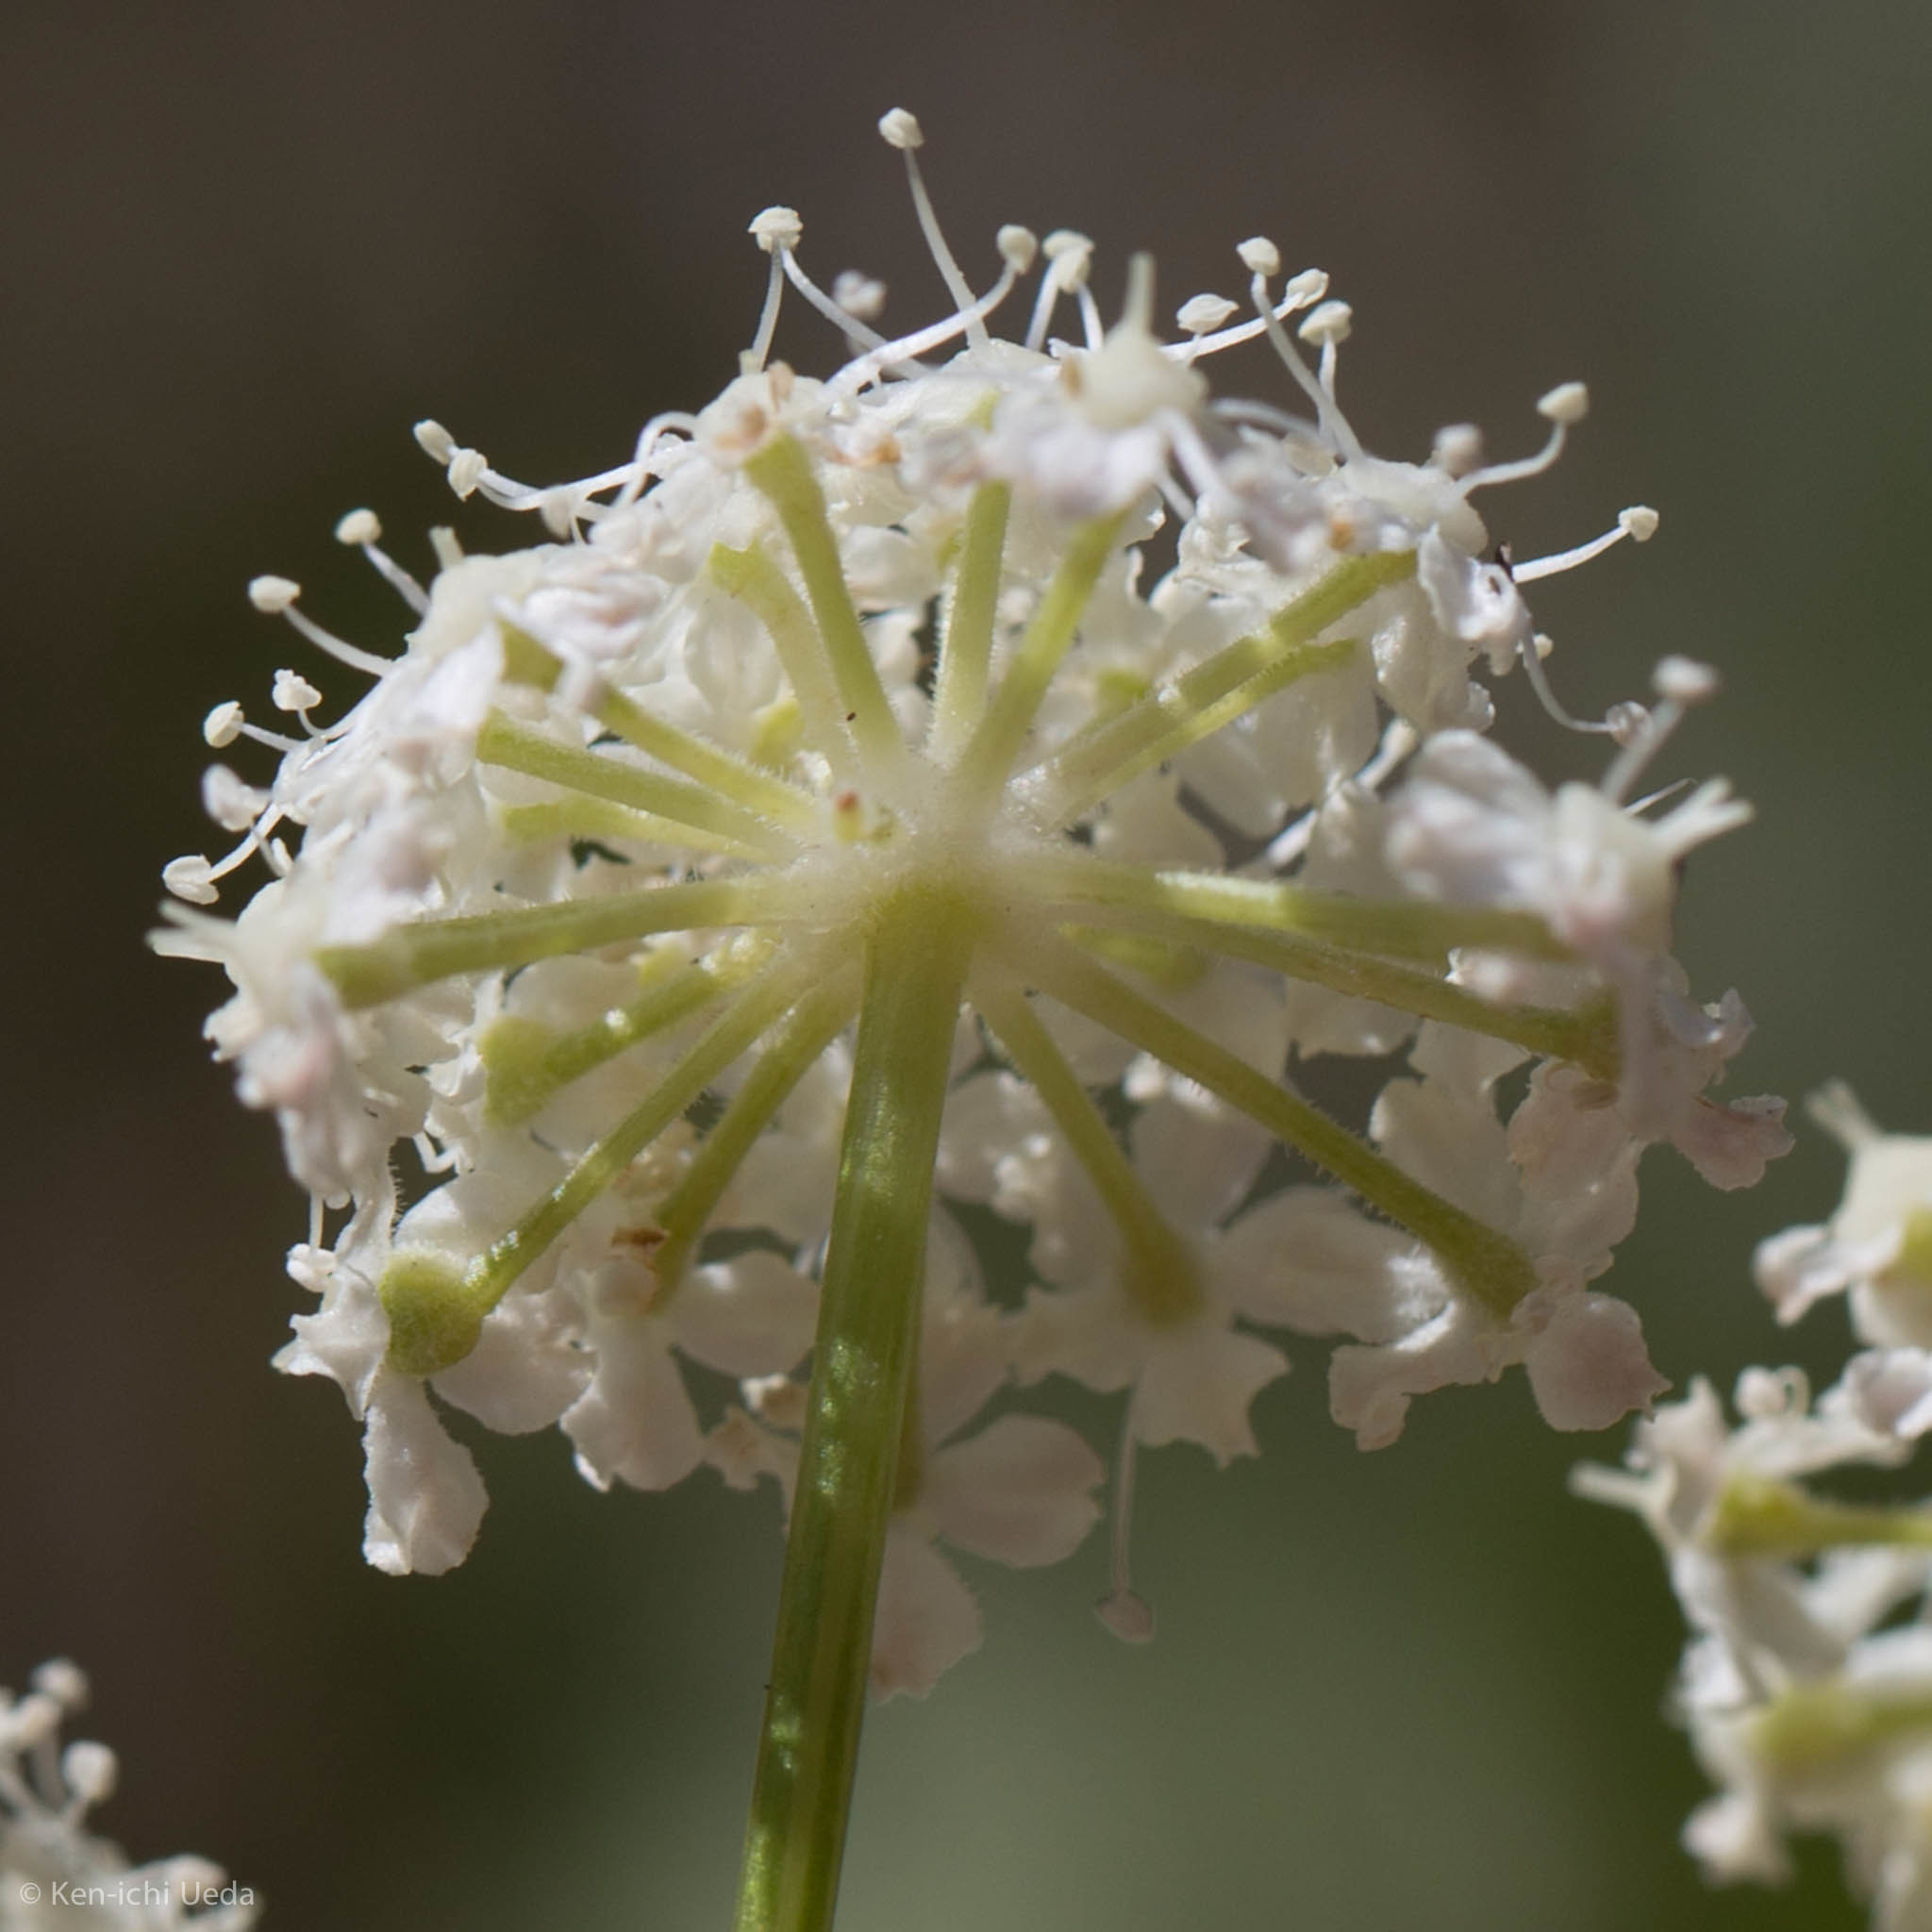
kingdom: Plantae
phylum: Tracheophyta
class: Magnoliopsida
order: Apiales
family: Apiaceae
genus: Angelica
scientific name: Angelica breweri
